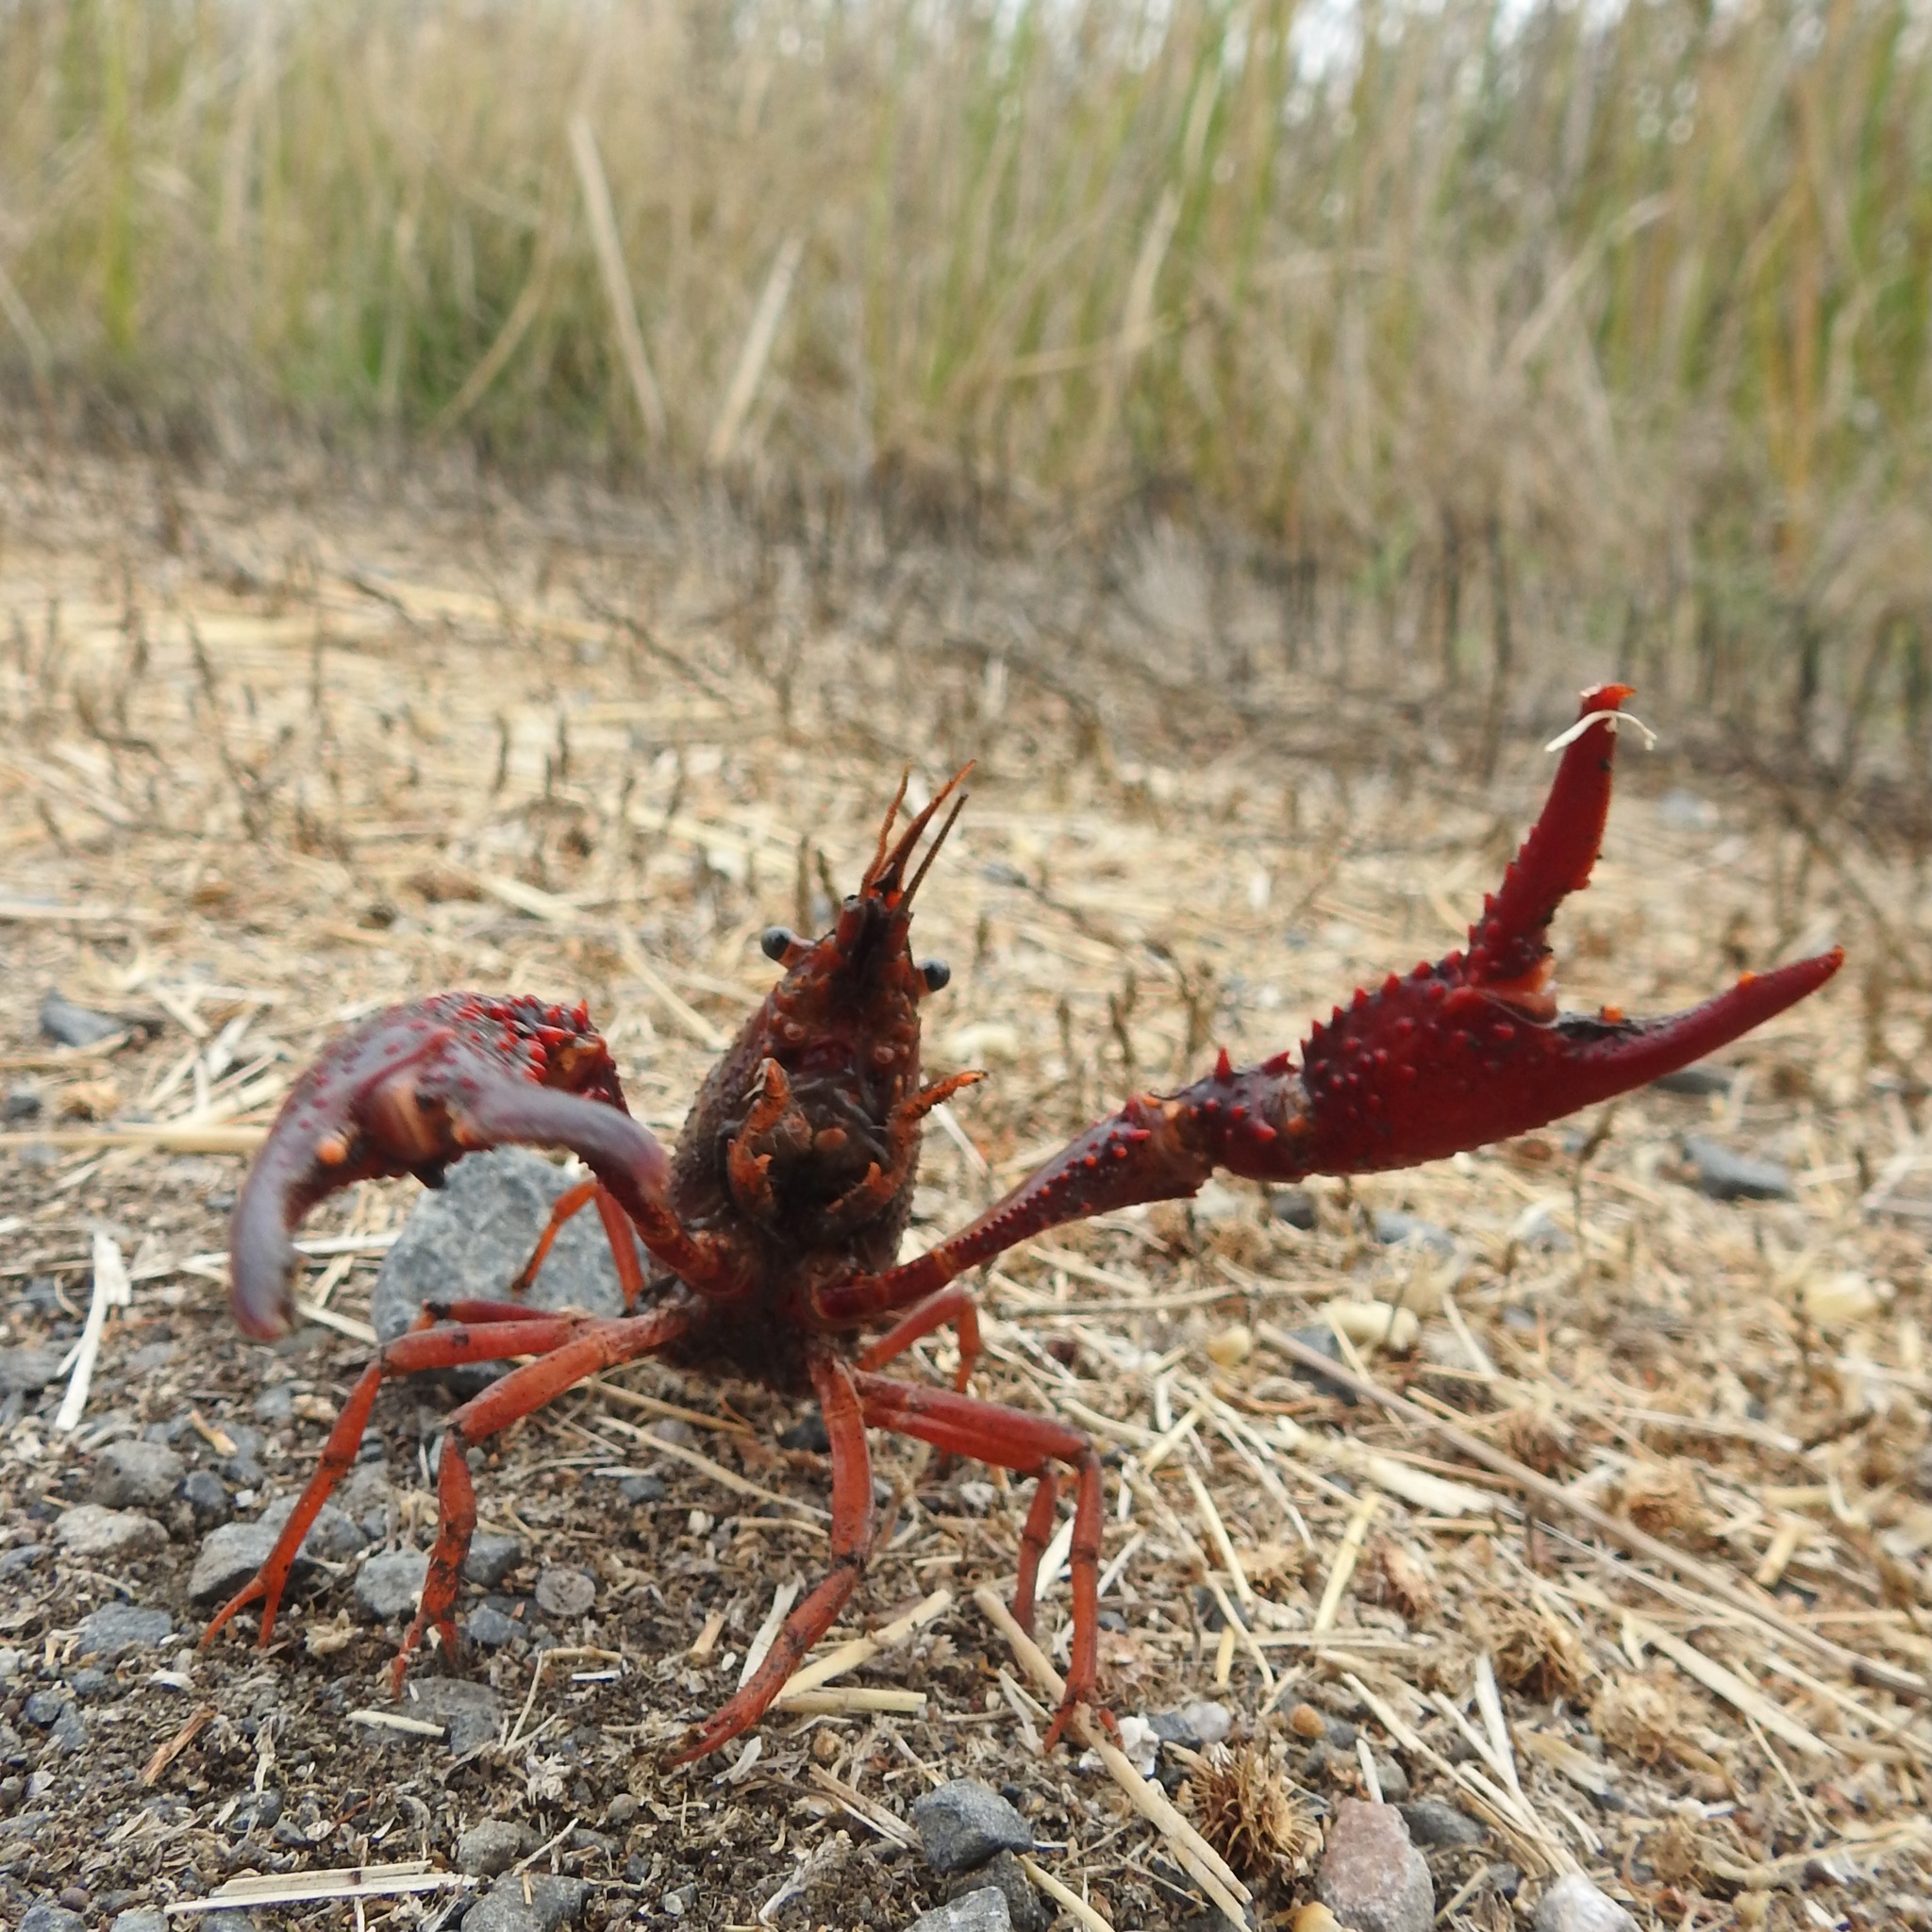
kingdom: Animalia
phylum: Arthropoda
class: Malacostraca
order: Decapoda
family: Cambaridae
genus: Procambarus
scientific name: Procambarus clarkii
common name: Red swamp crayfish
